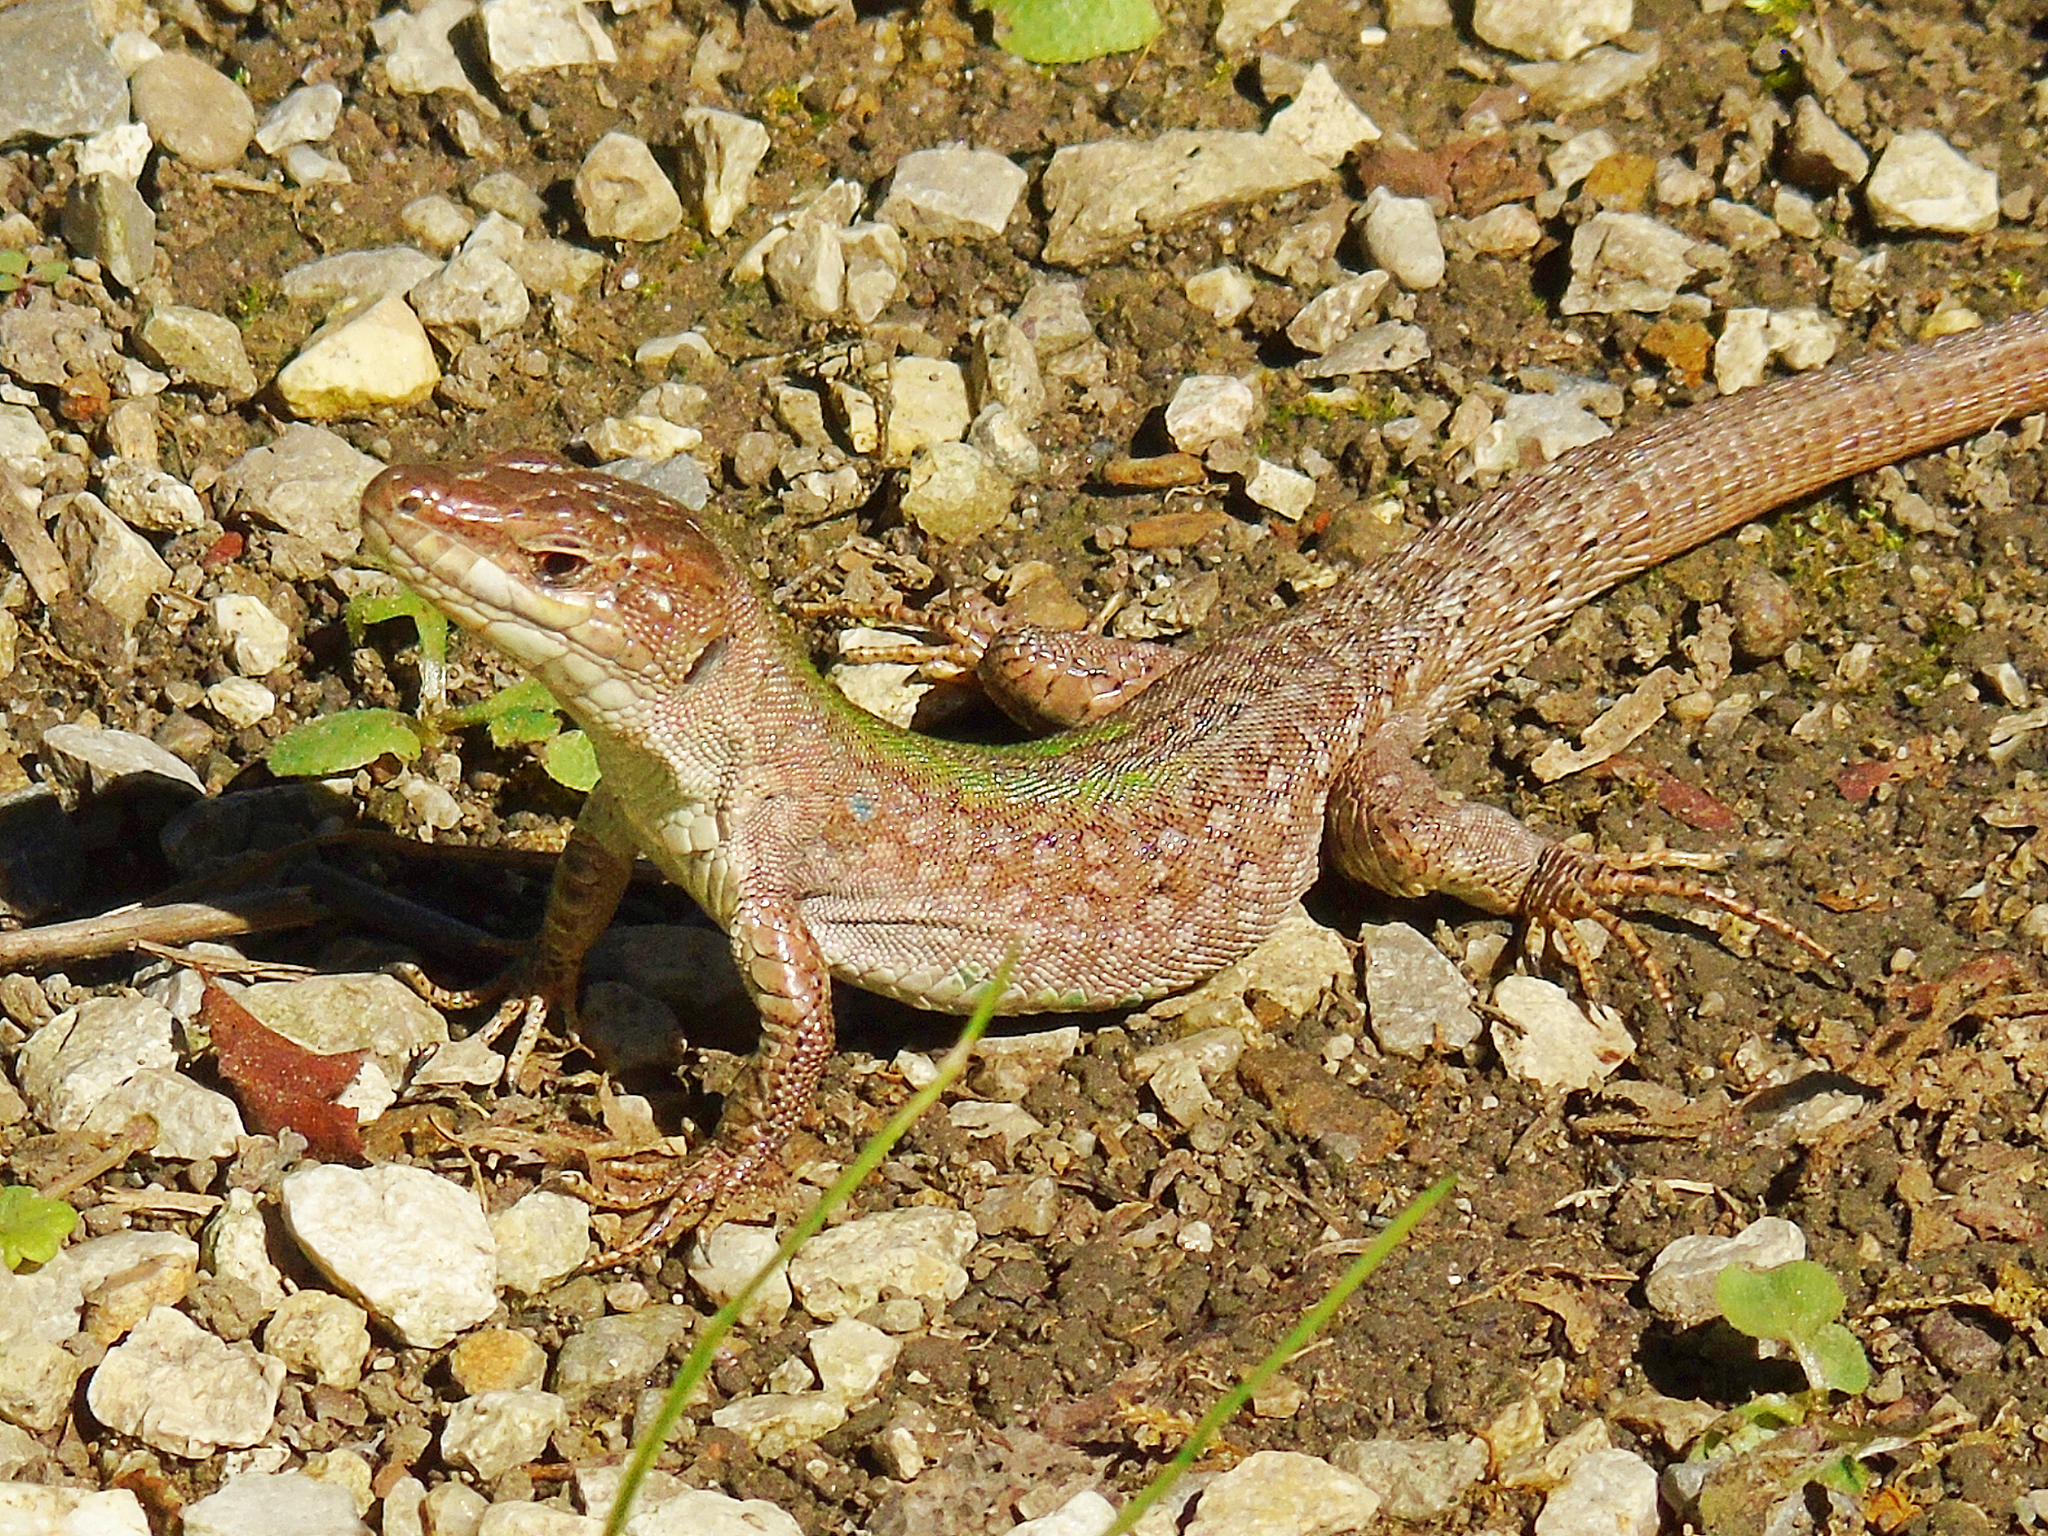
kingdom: Animalia
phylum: Chordata
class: Squamata
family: Lacertidae
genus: Podarcis
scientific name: Podarcis siculus
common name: Italian wall lizard
